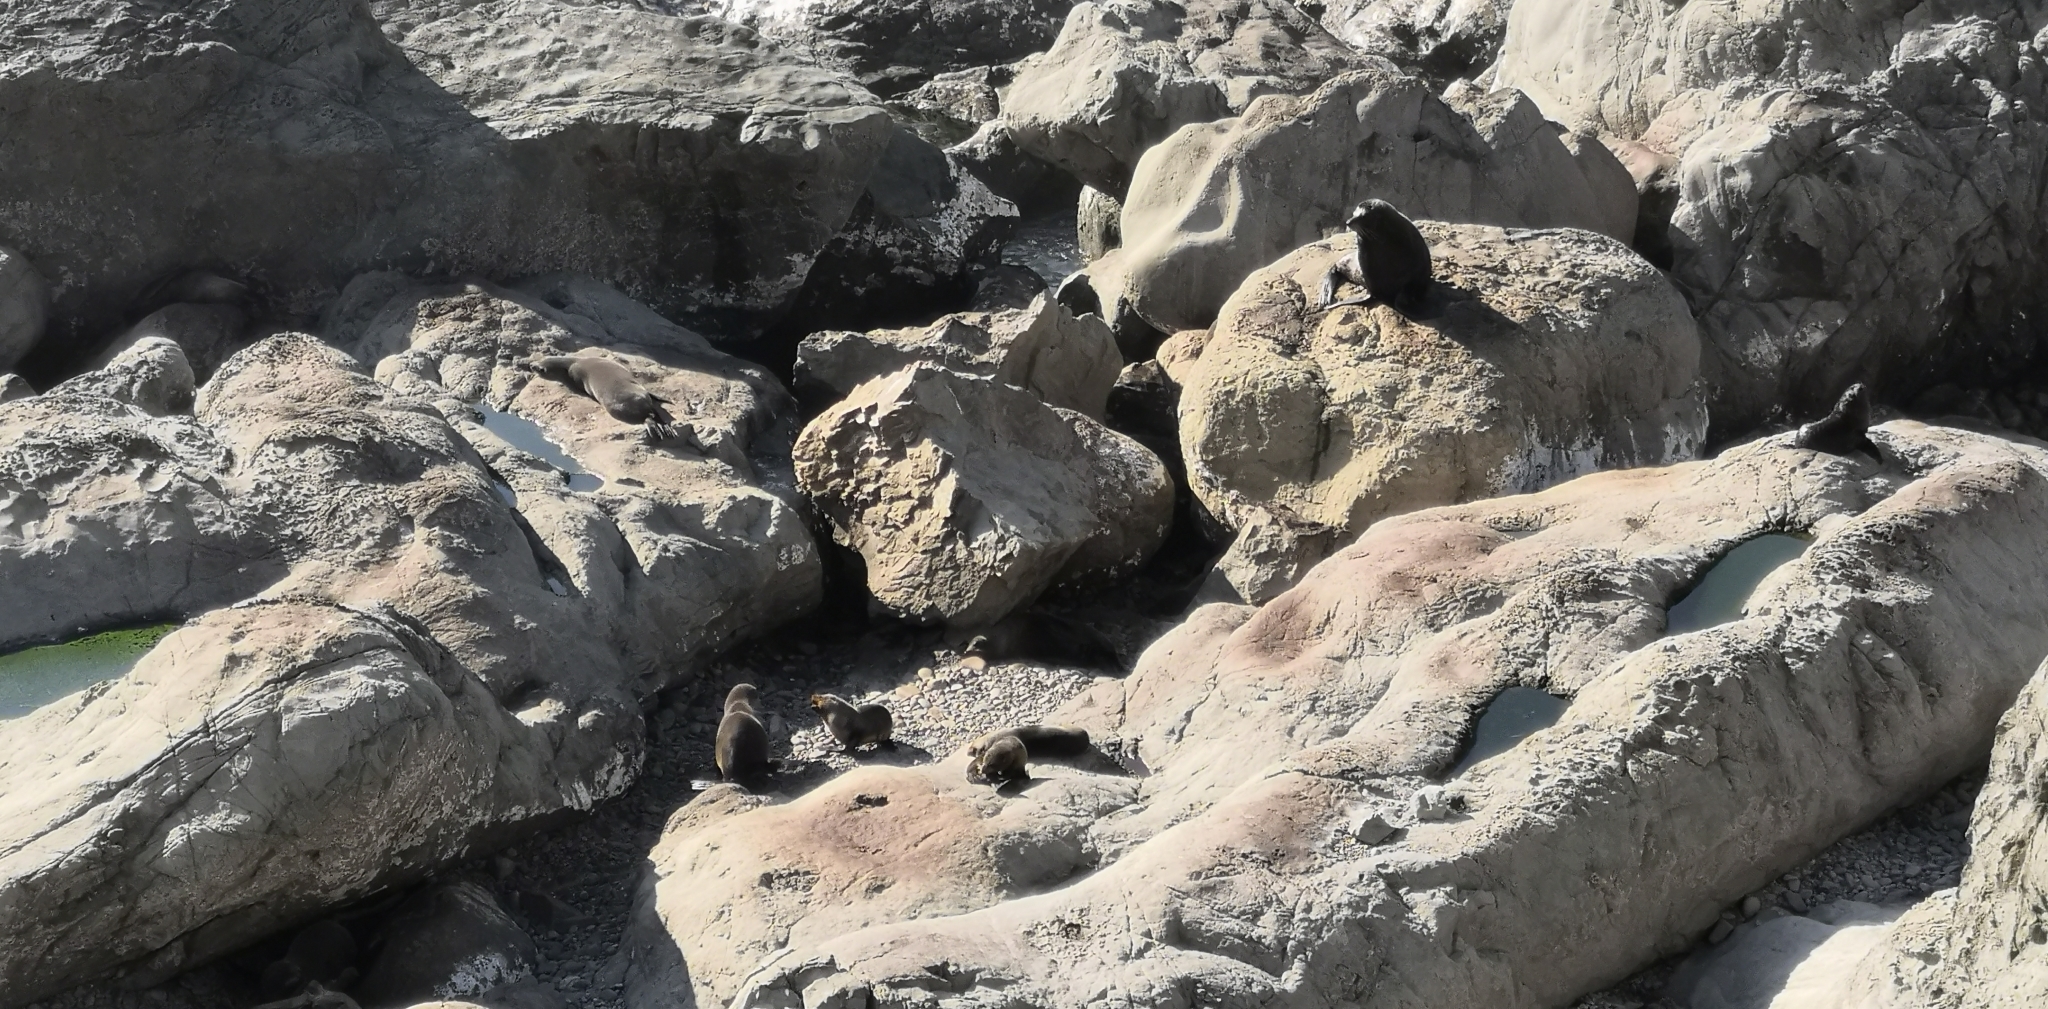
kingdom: Animalia
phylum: Chordata
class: Mammalia
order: Carnivora
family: Otariidae
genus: Arctocephalus
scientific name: Arctocephalus forsteri
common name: New zealand fur seal
